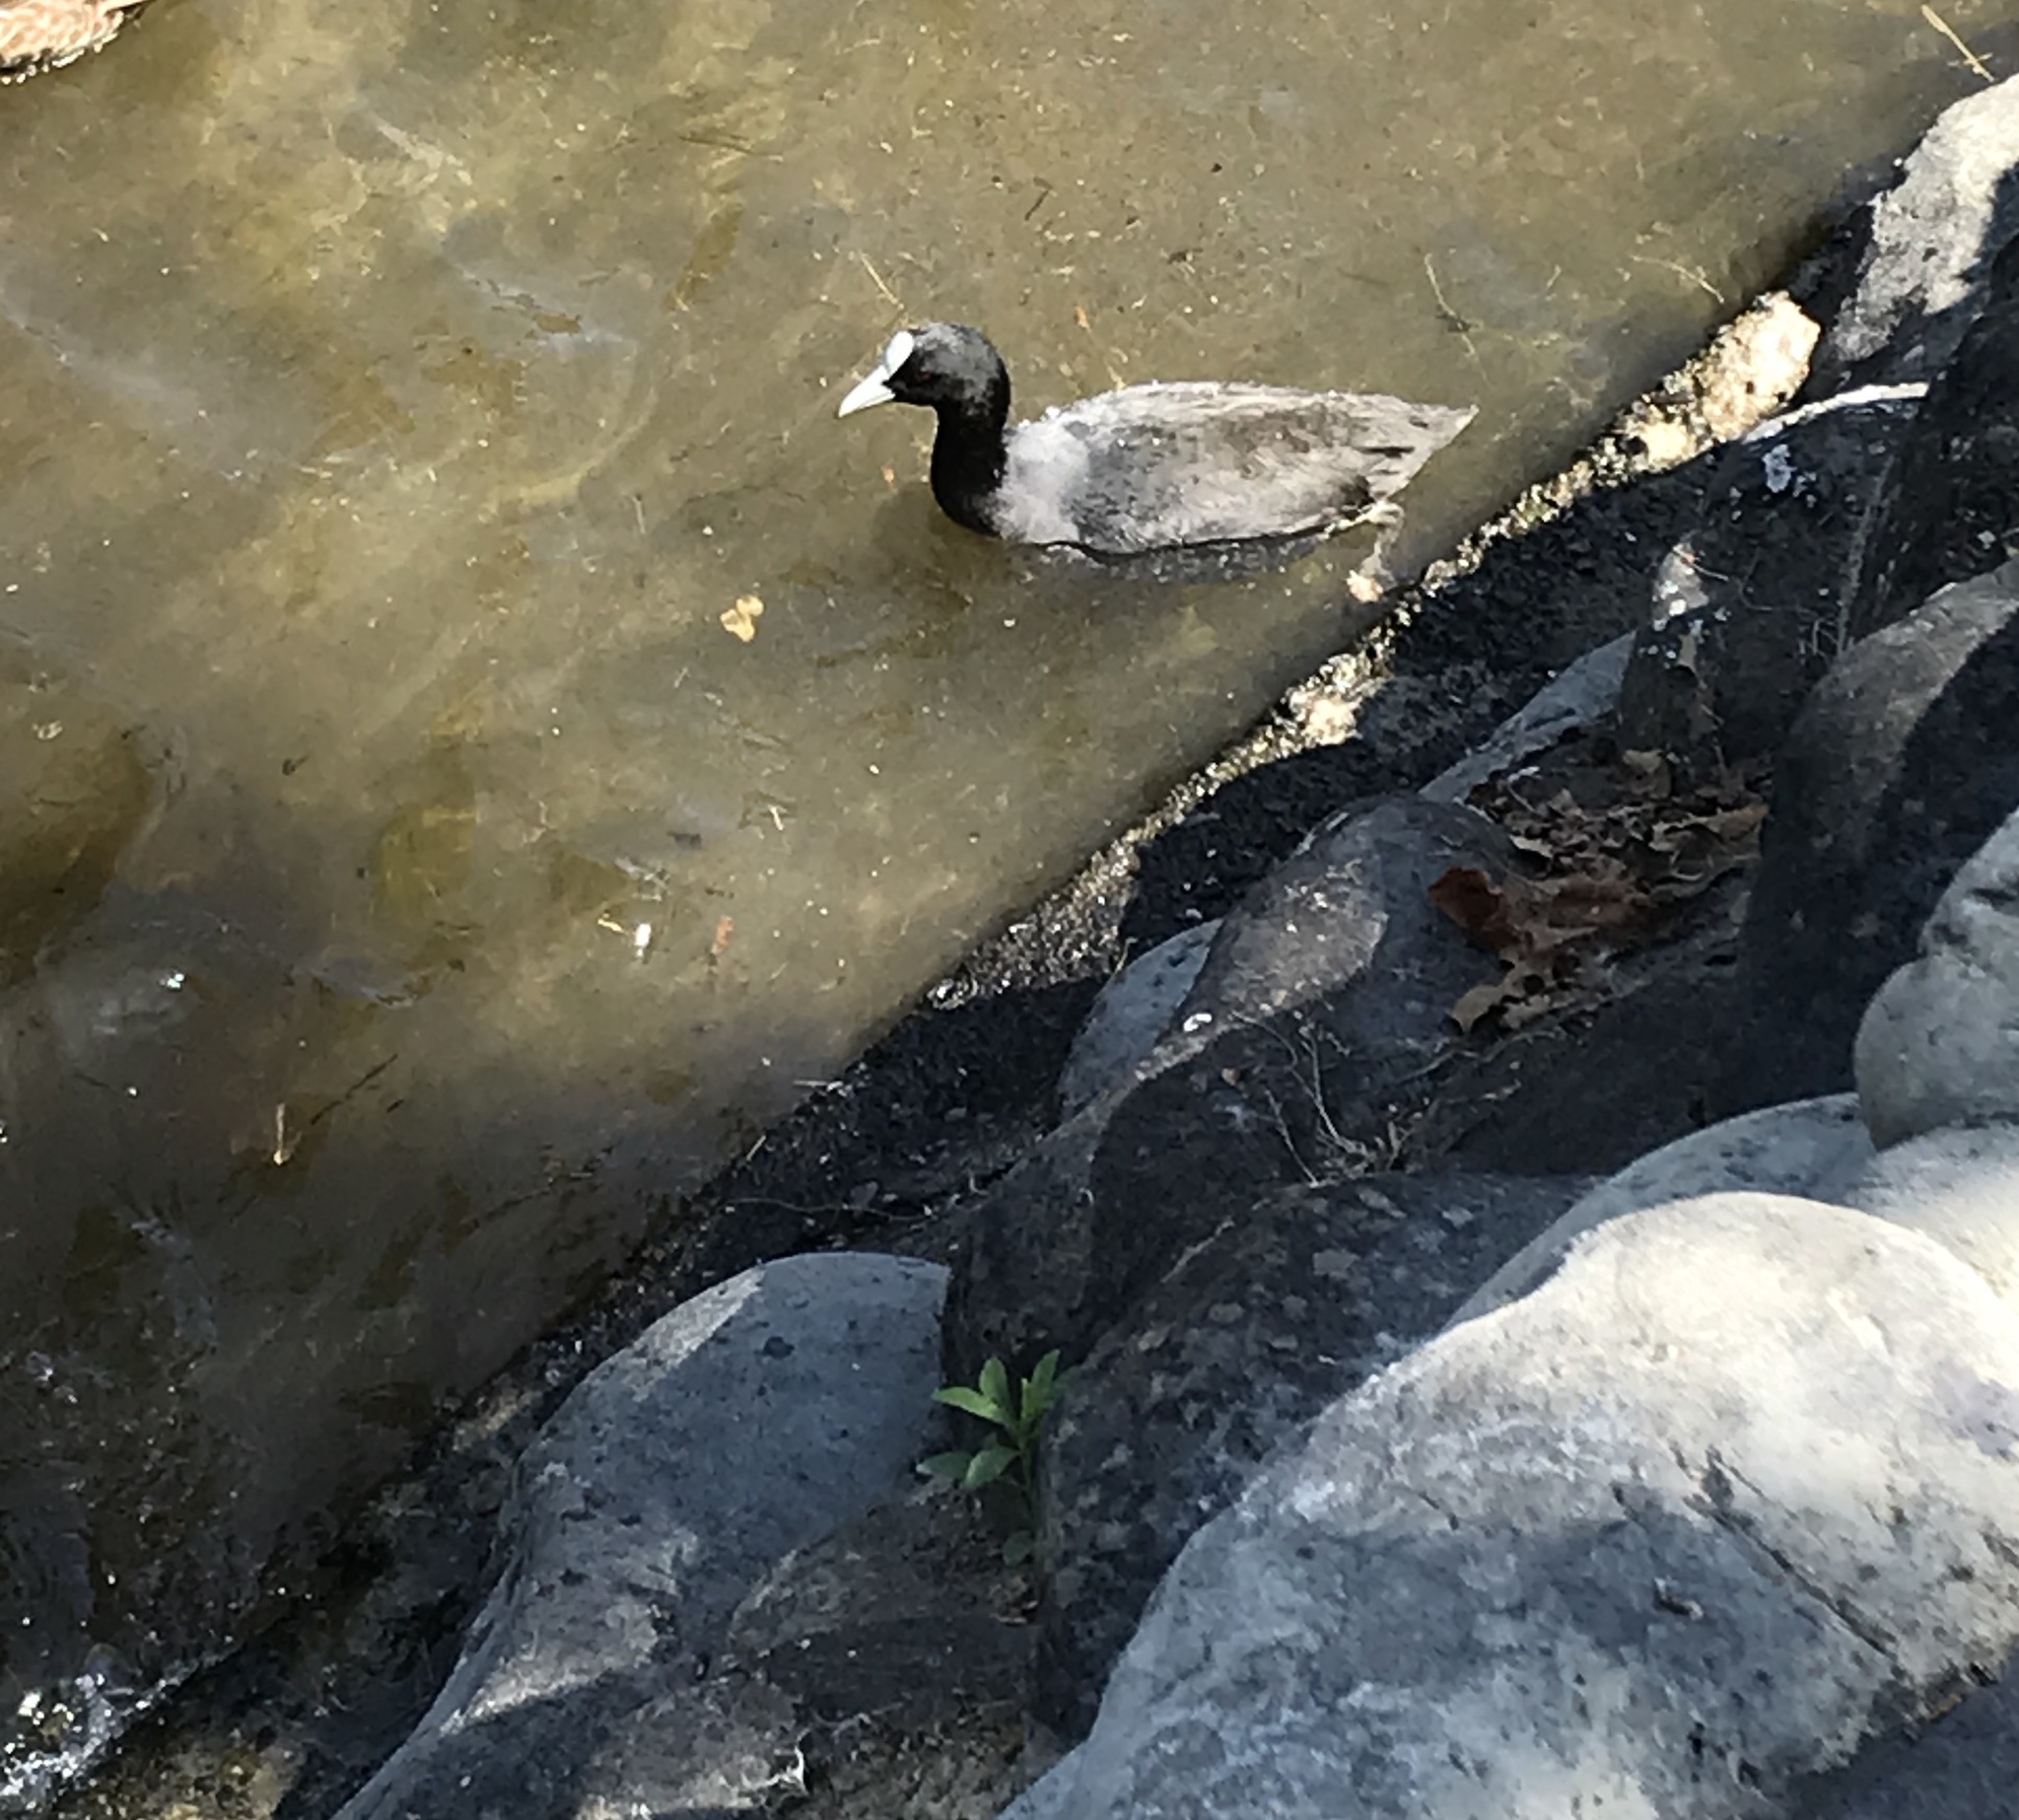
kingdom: Animalia
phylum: Chordata
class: Aves
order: Gruiformes
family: Rallidae
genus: Fulica
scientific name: Fulica atra
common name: Eurasian coot
